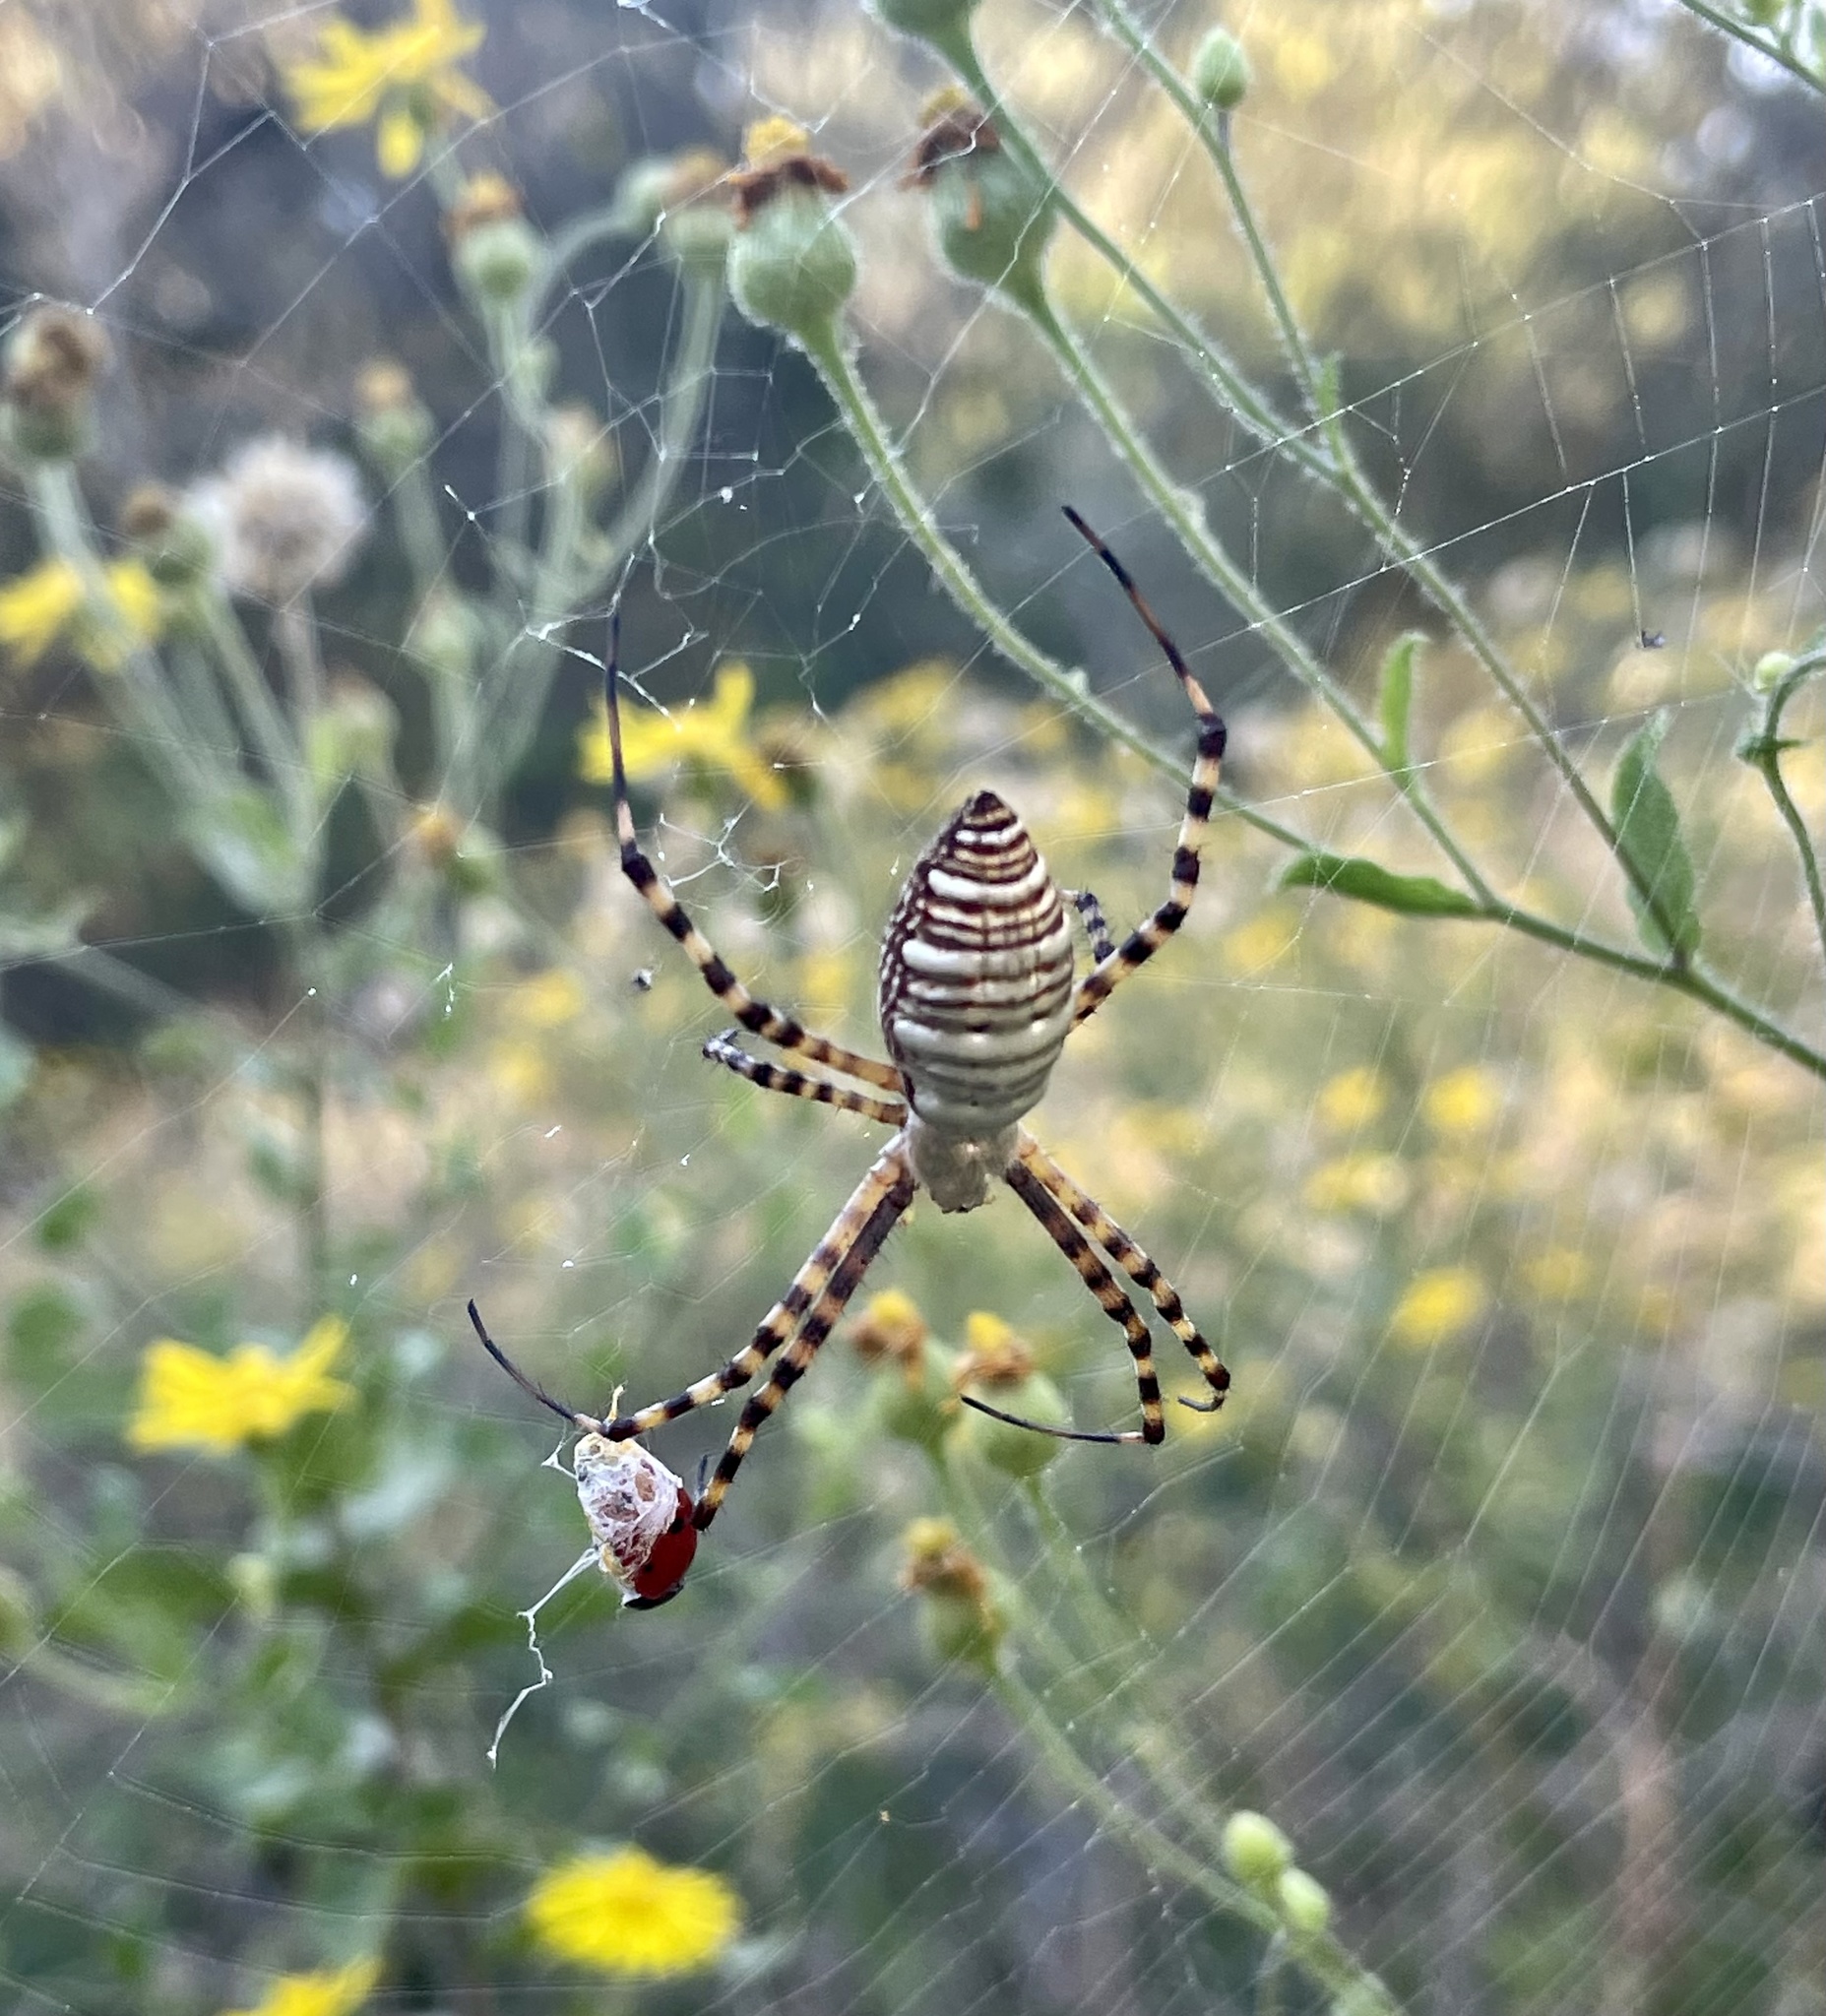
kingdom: Animalia
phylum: Arthropoda
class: Arachnida
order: Araneae
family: Araneidae
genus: Argiope
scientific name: Argiope trifasciata
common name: Banded garden spider
